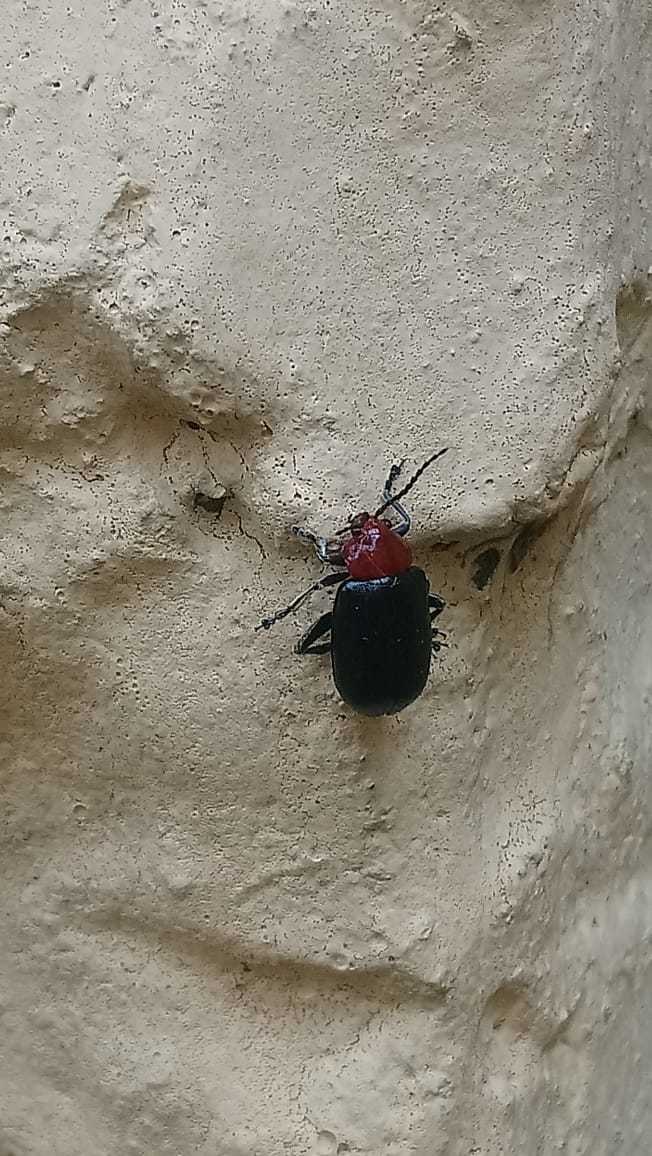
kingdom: Animalia
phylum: Arthropoda
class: Insecta
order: Coleoptera
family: Chrysomelidae
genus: Cacoscelis
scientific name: Cacoscelis
